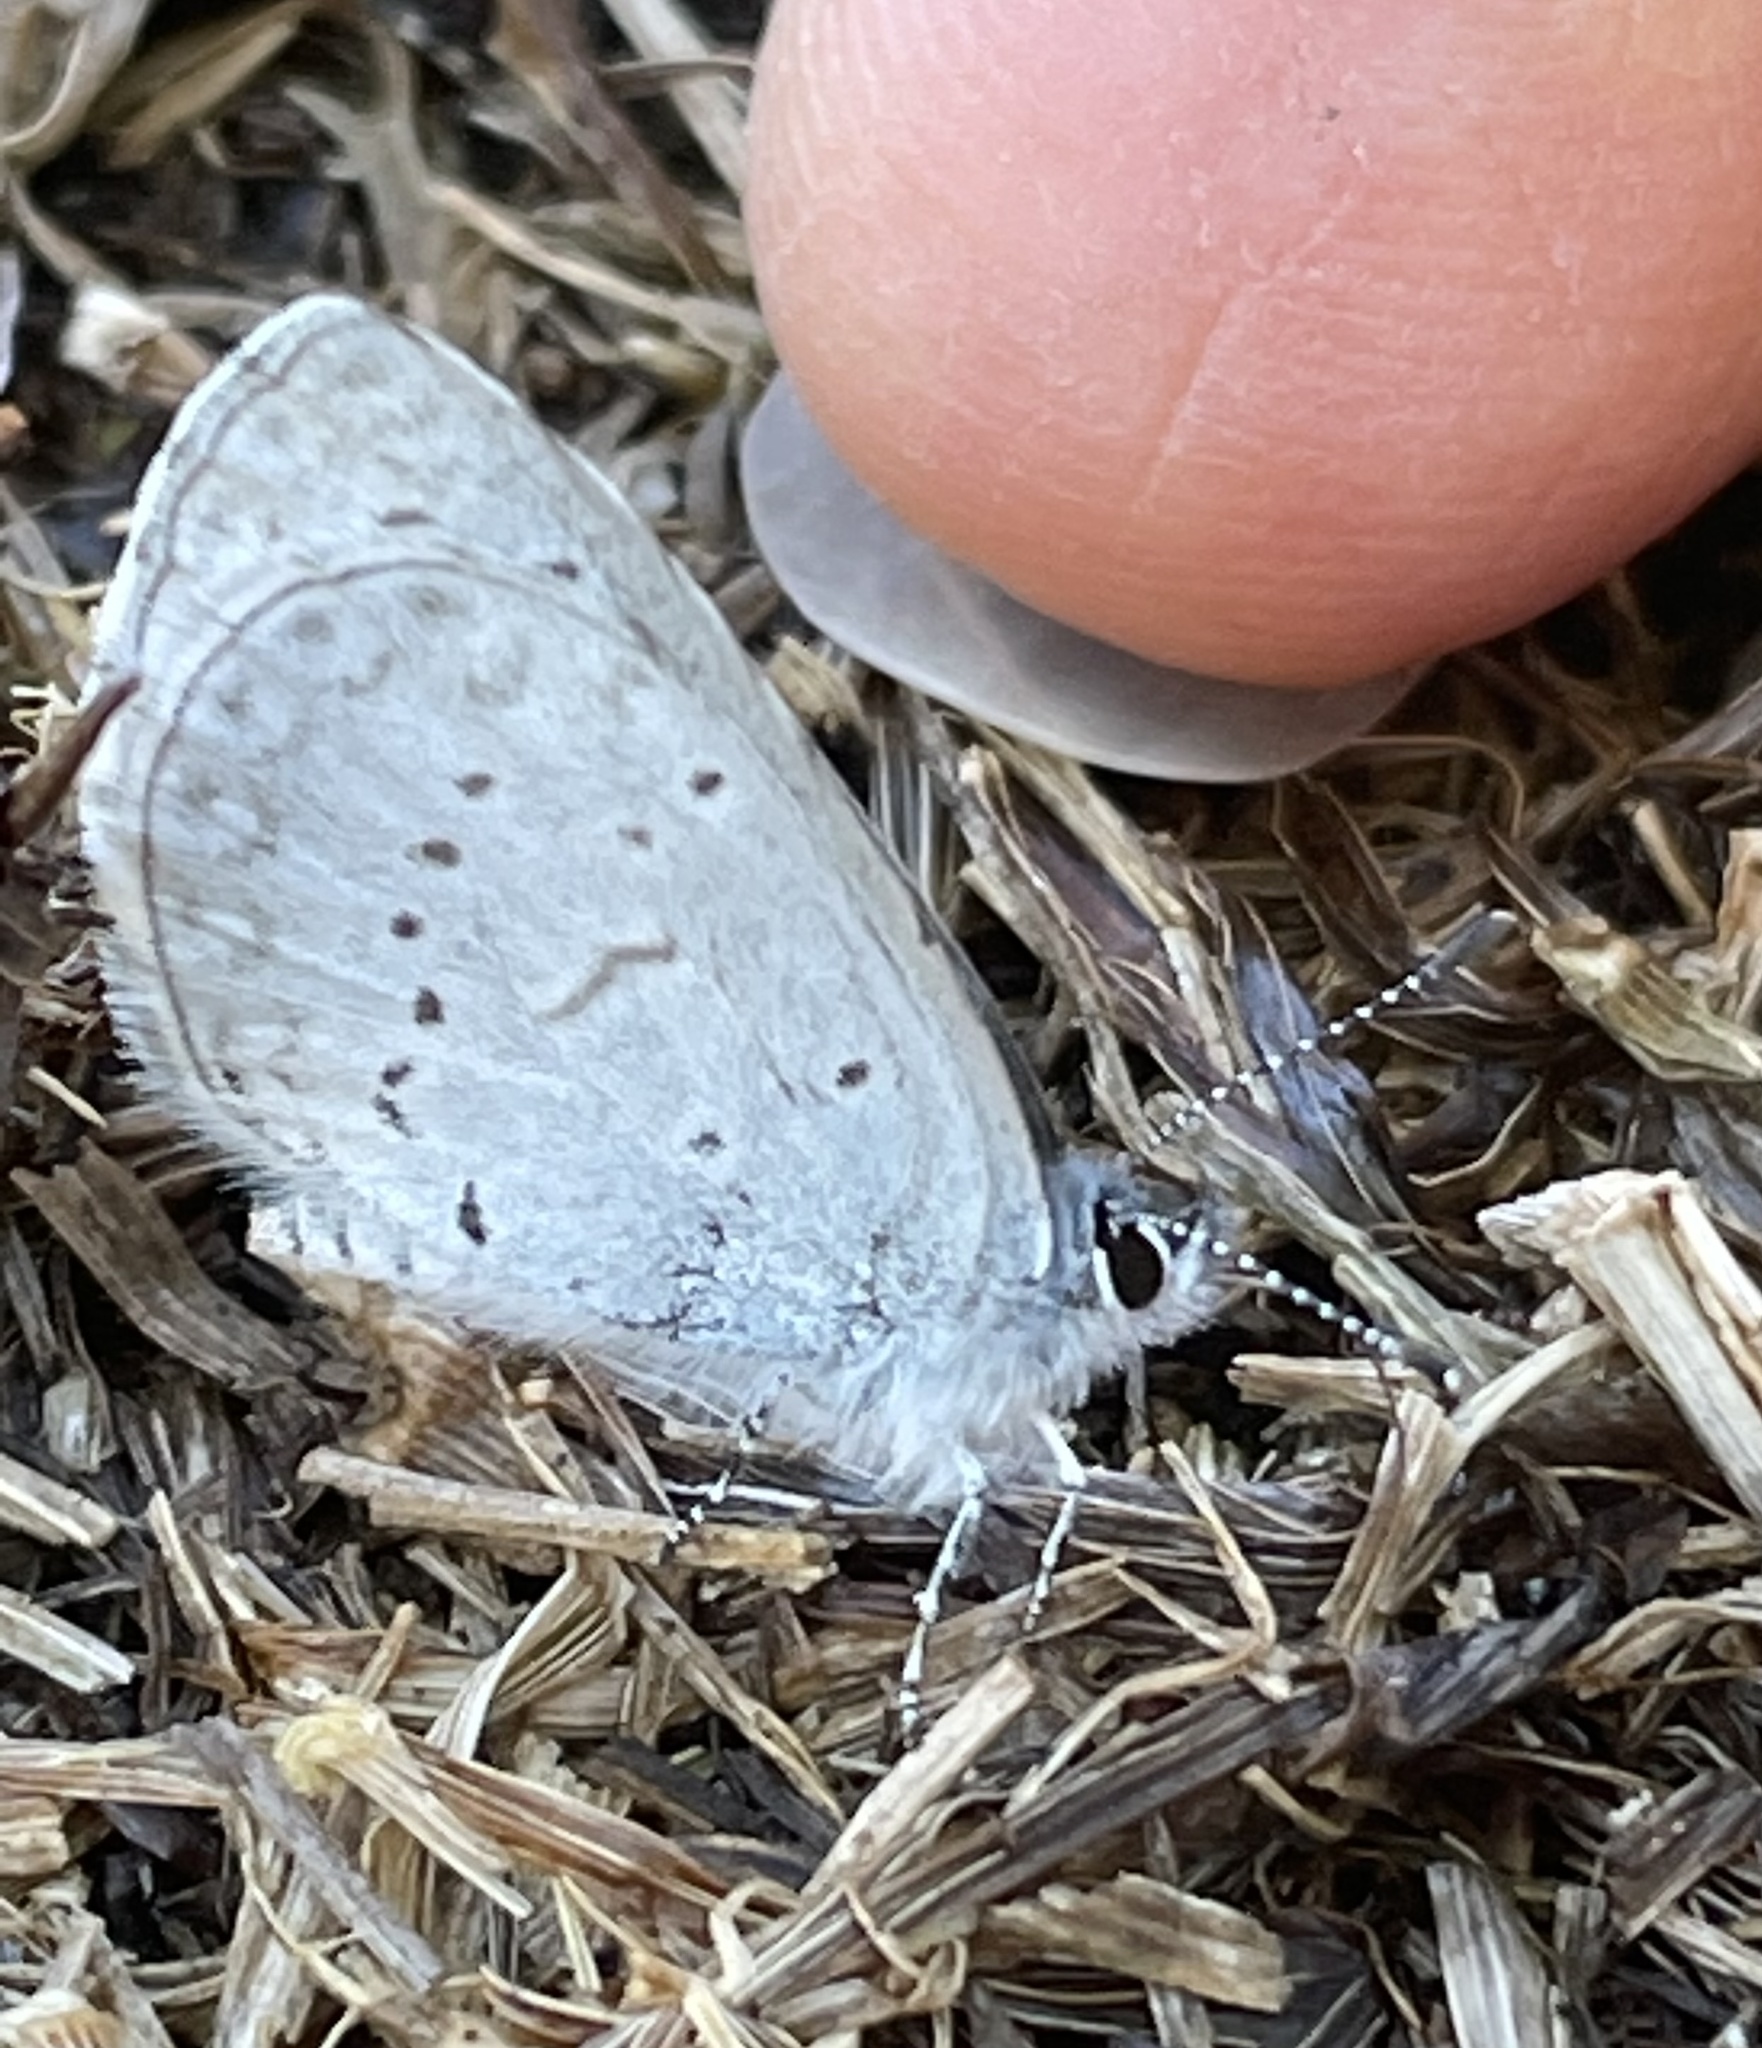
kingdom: Animalia
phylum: Arthropoda
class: Insecta
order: Lepidoptera
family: Lycaenidae
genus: Celastrina
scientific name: Celastrina ladon
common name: Spring azure
